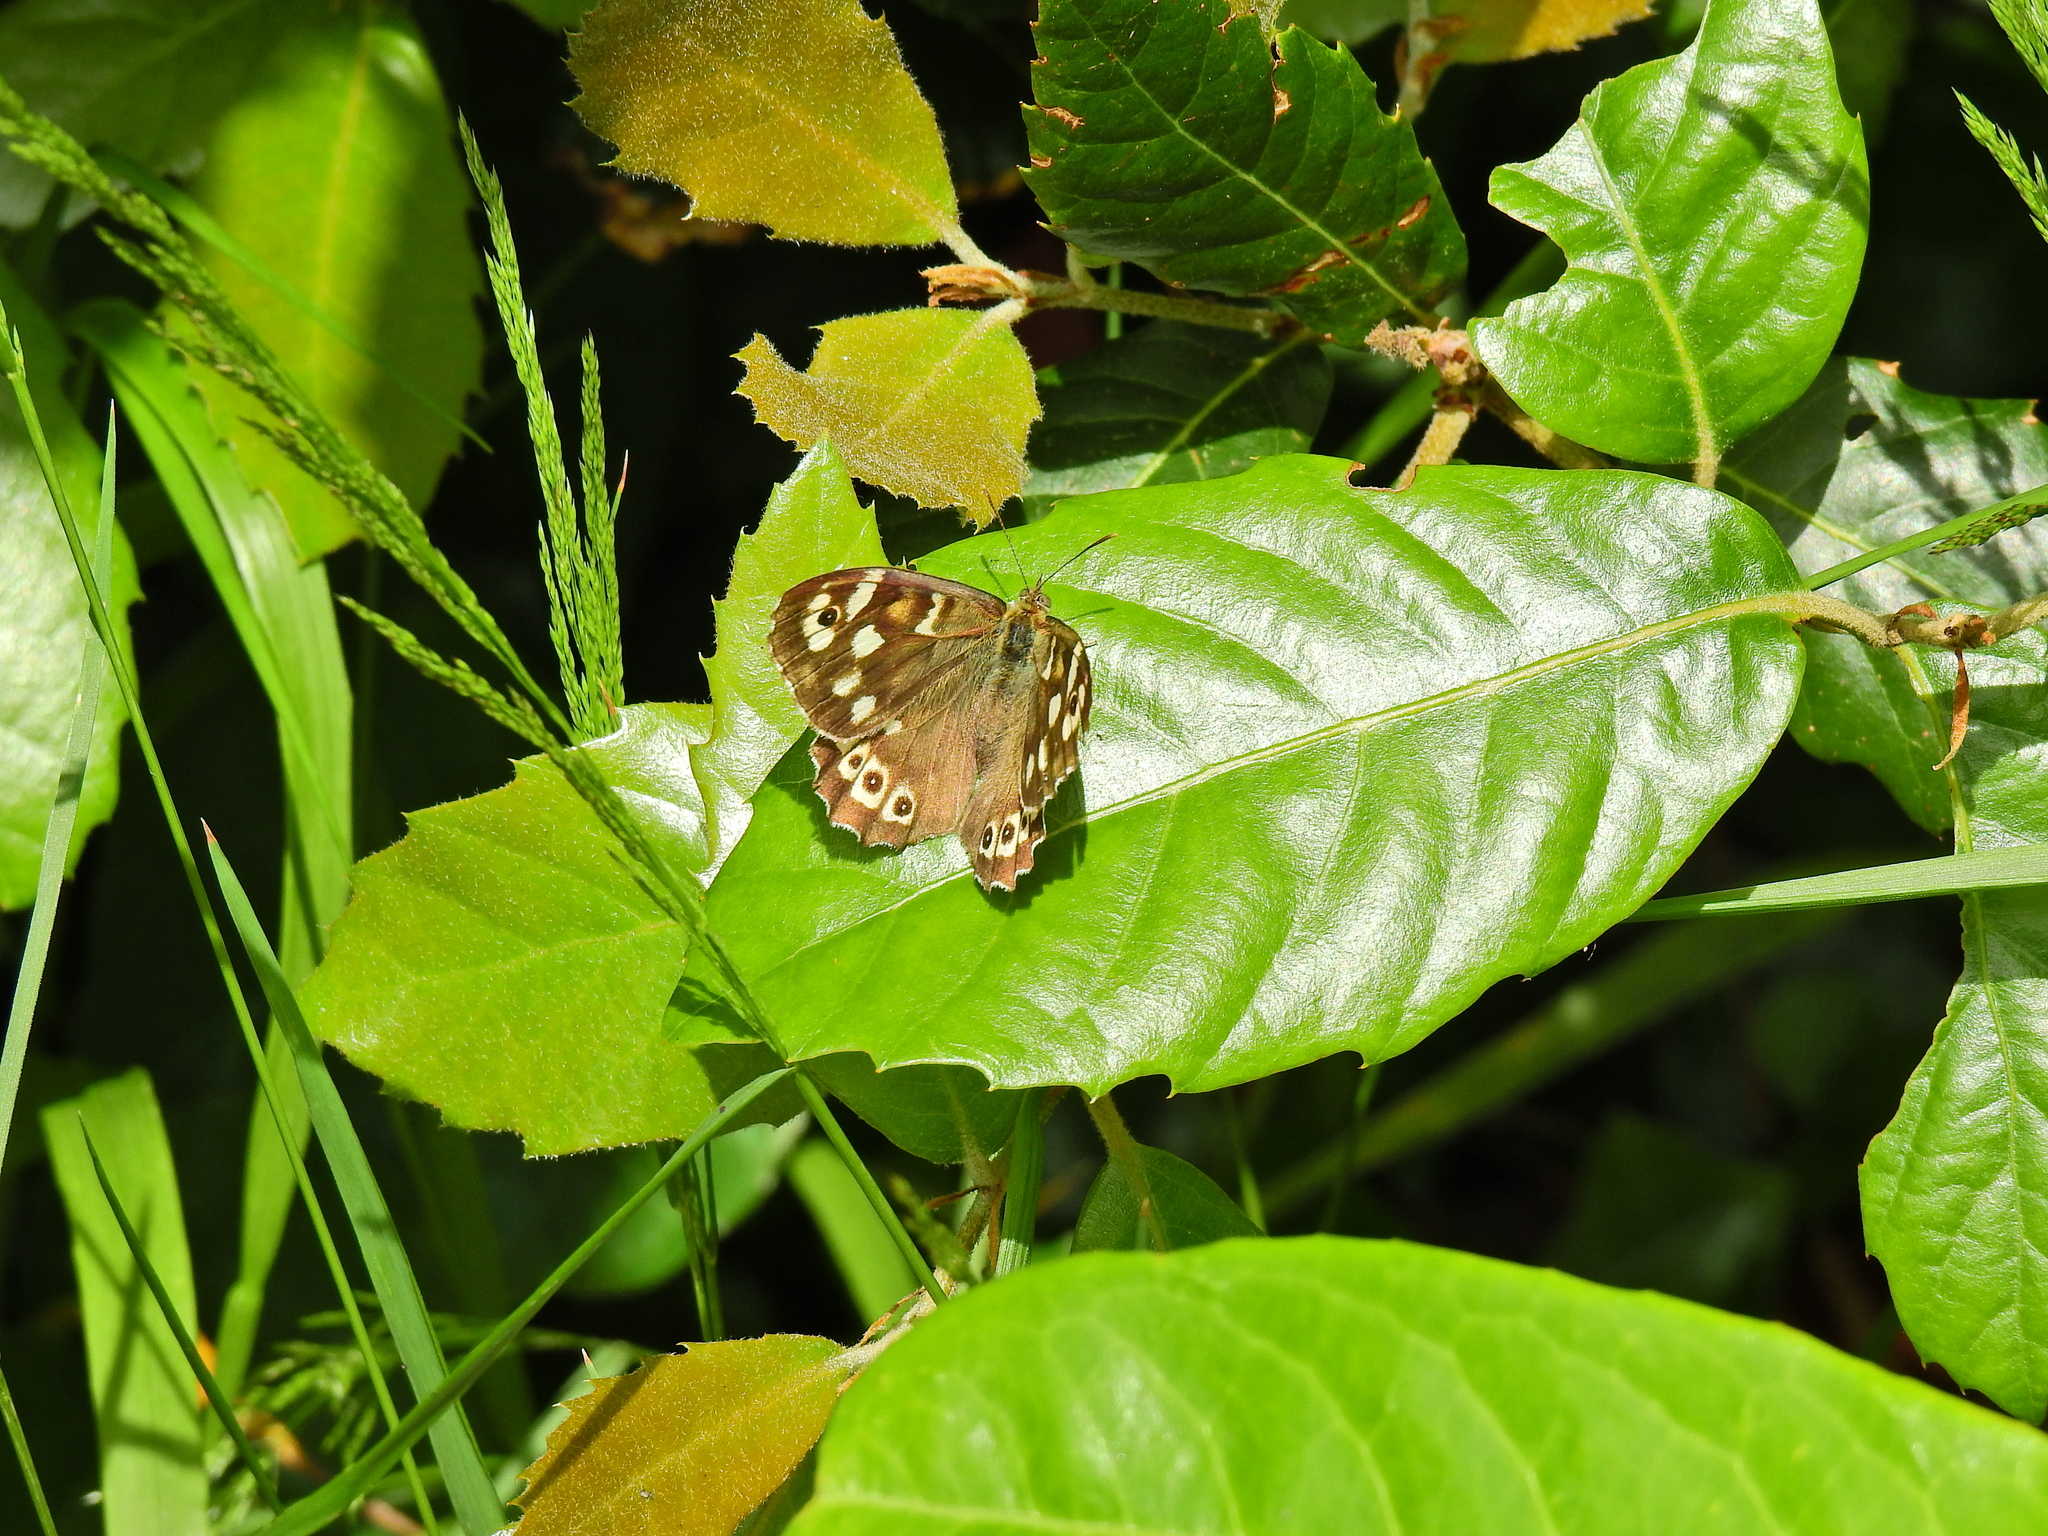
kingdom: Animalia
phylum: Arthropoda
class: Insecta
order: Lepidoptera
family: Nymphalidae
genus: Pararge
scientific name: Pararge aegeria
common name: Speckled wood
